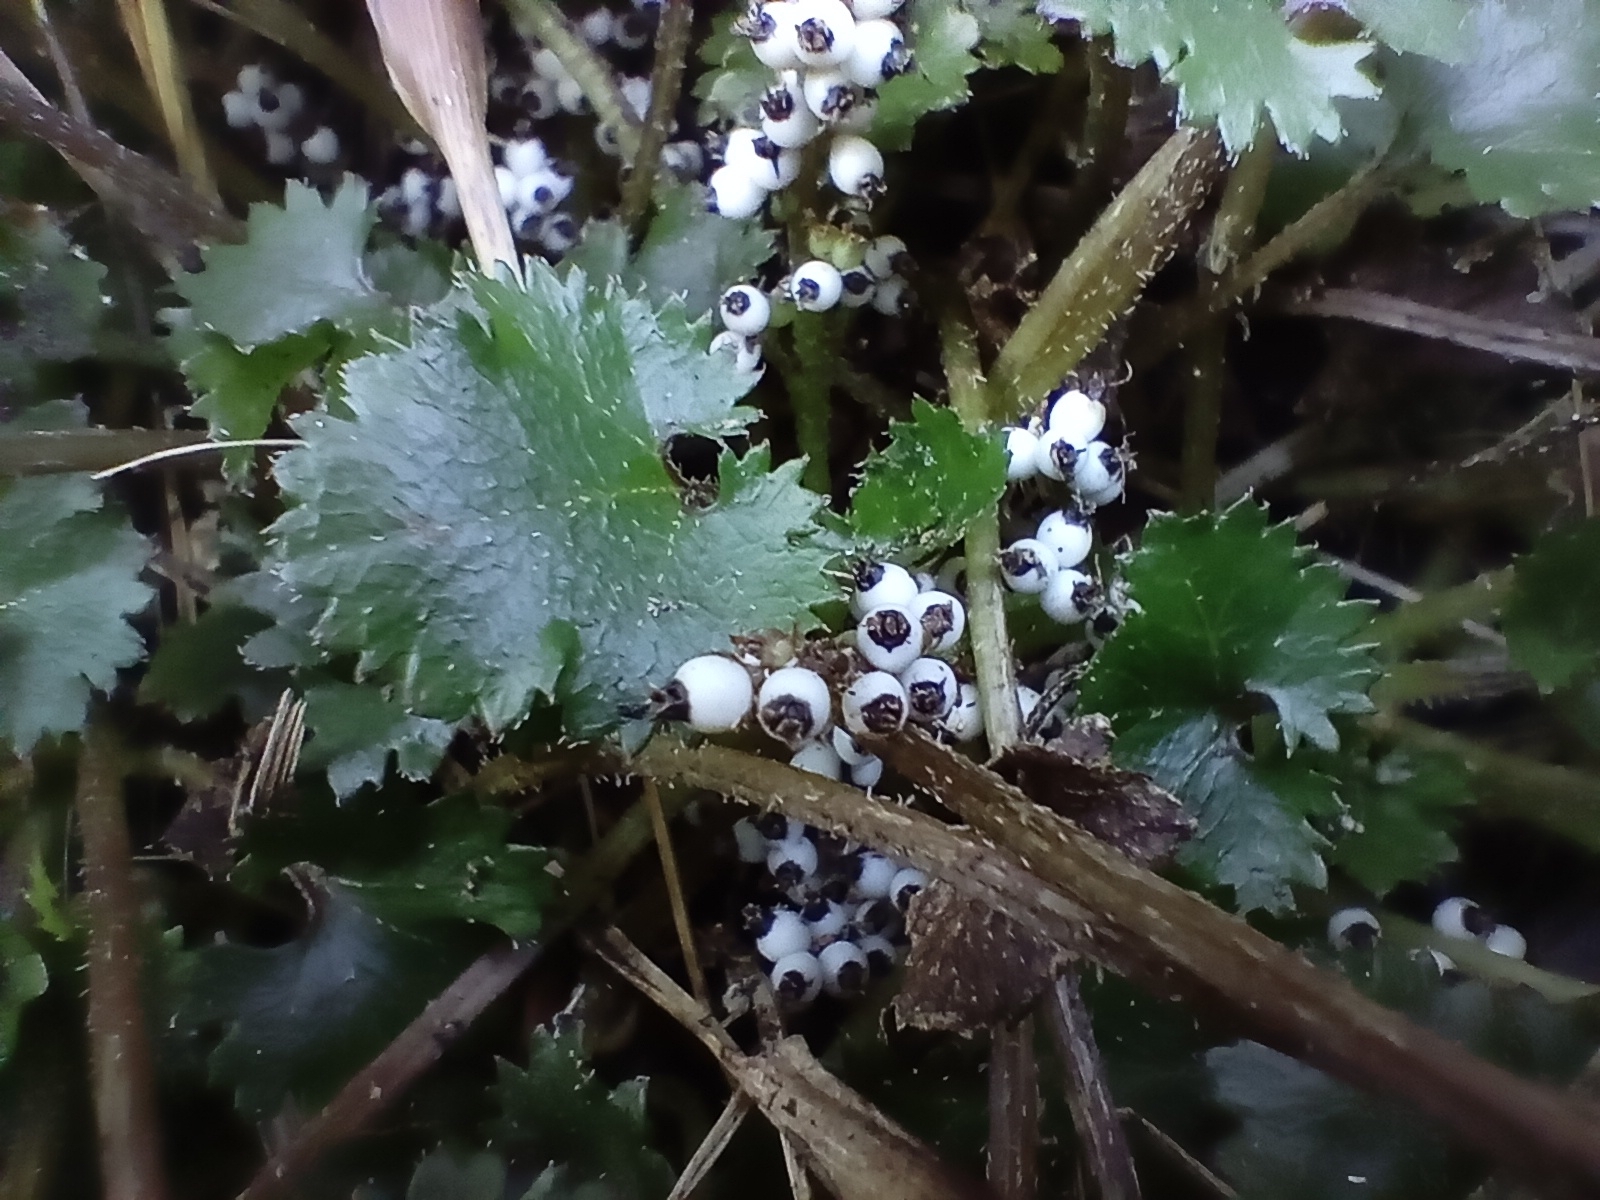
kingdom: Plantae
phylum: Tracheophyta
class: Magnoliopsida
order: Gunnerales
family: Gunneraceae
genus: Gunnera
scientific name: Gunnera monoica
